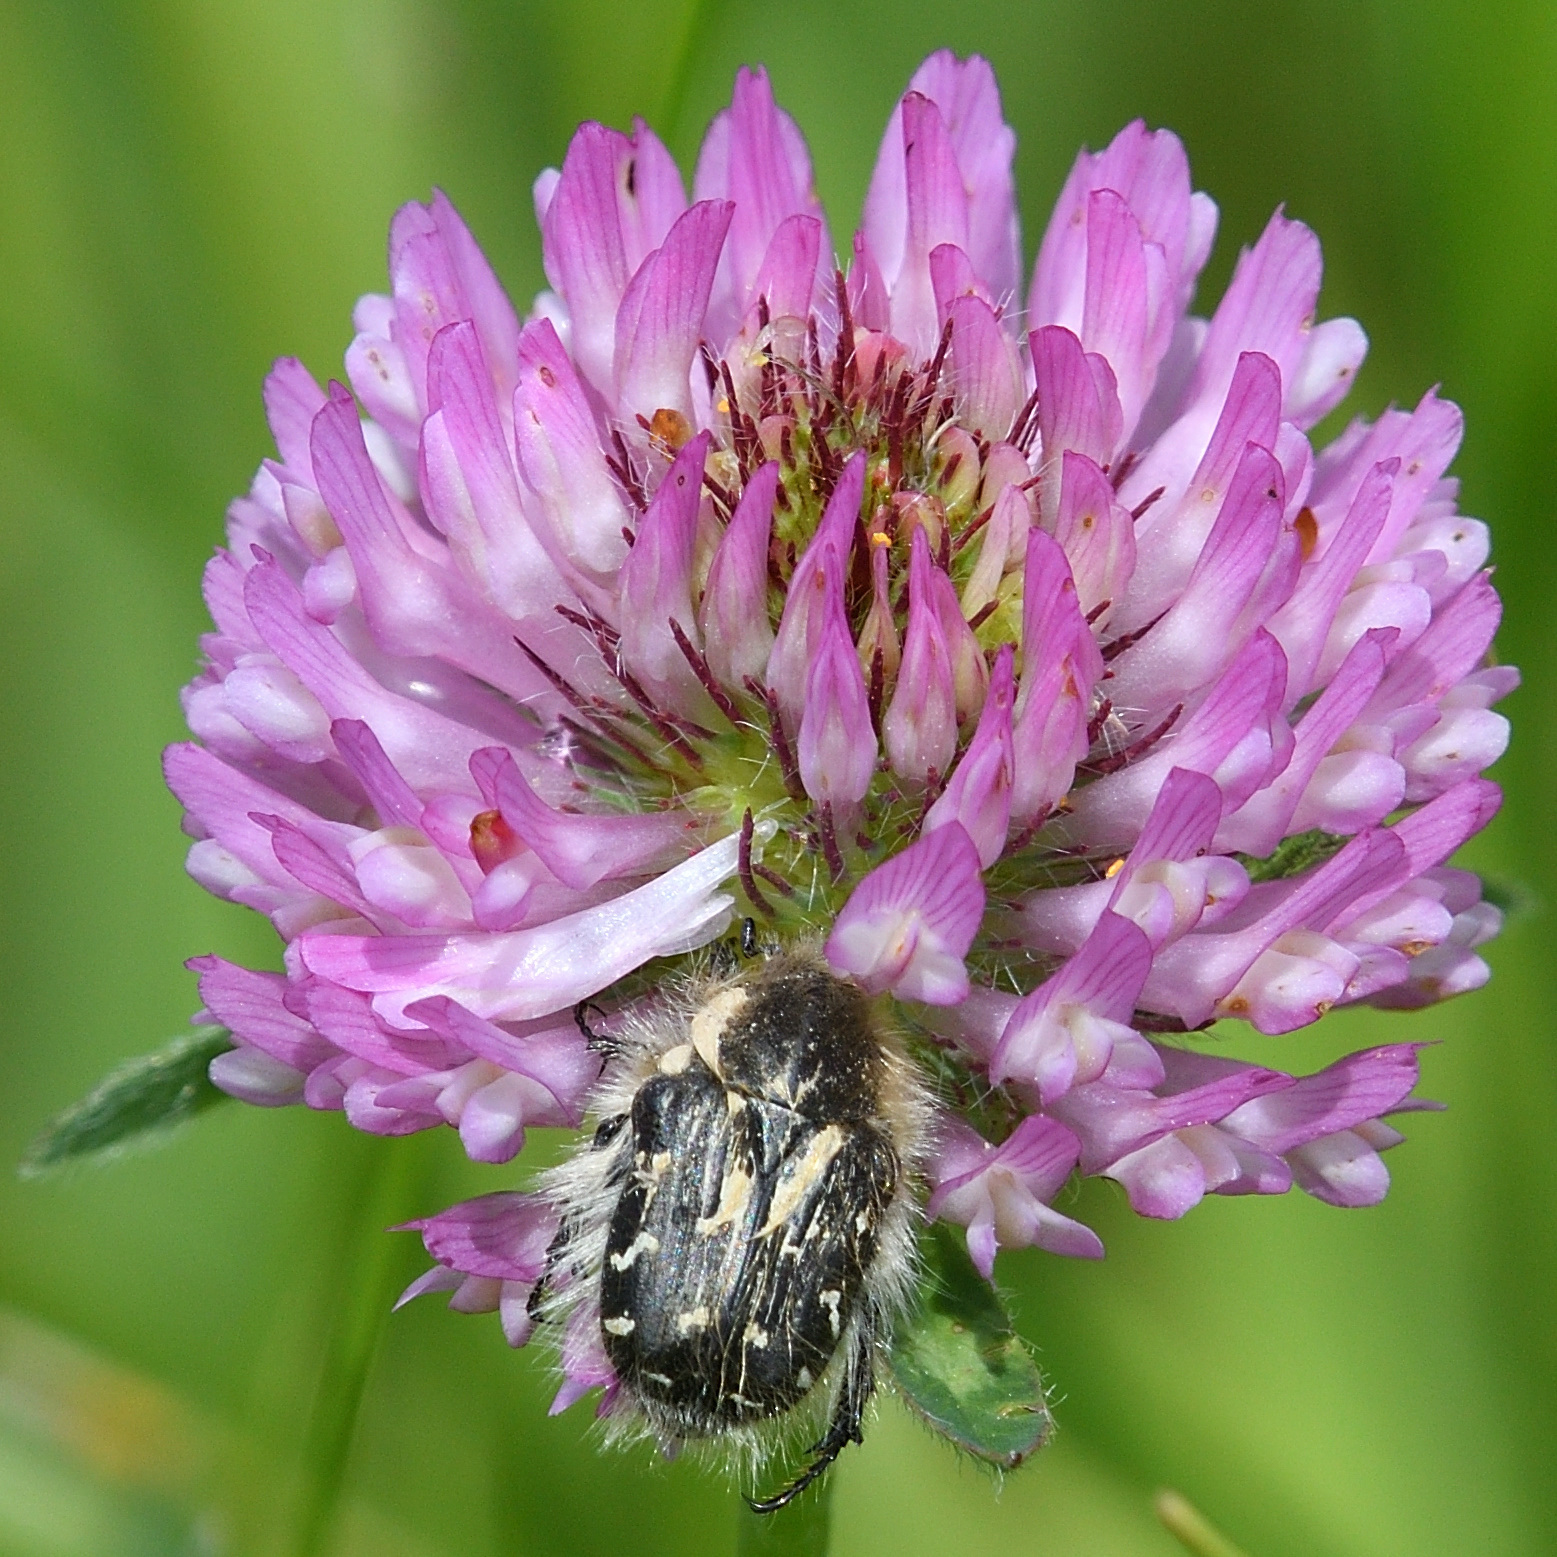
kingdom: Animalia
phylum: Arthropoda
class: Insecta
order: Coleoptera
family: Scarabaeidae
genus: Tropinota
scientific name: Tropinota hirta
